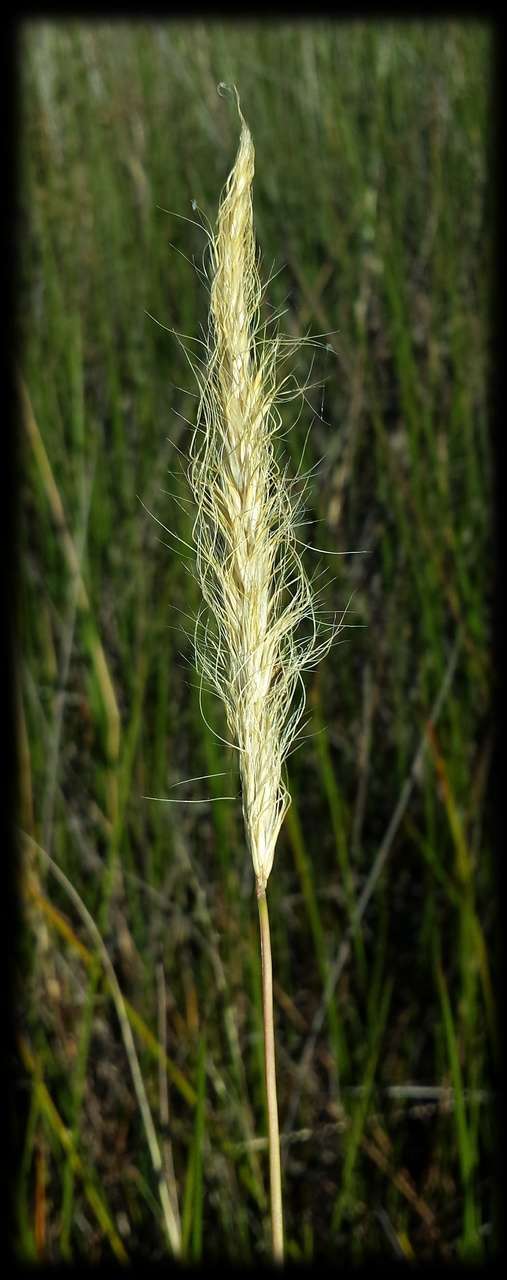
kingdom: Plantae
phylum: Tracheophyta
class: Liliopsida
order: Poales
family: Poaceae
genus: Pentapogon
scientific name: Pentapogon quadrifidus
